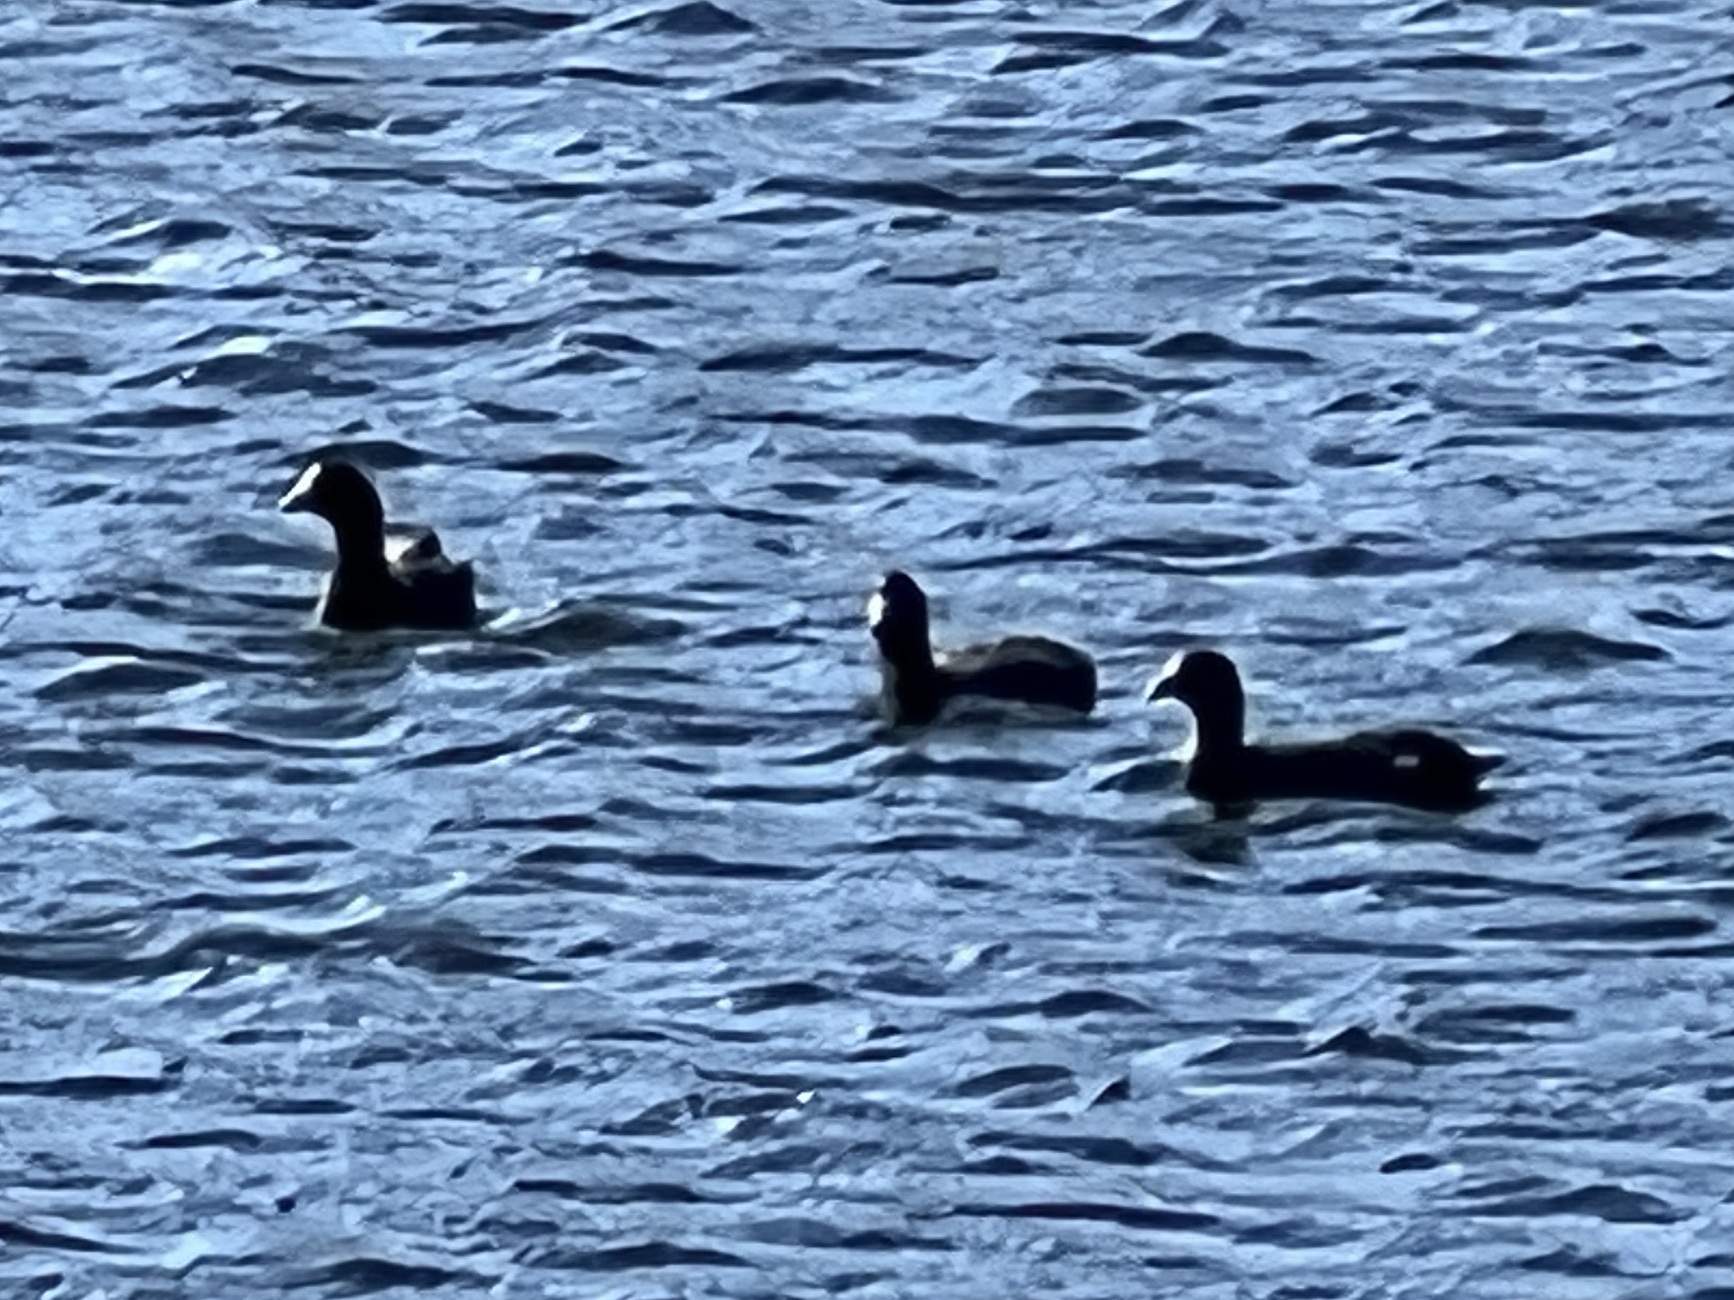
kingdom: Animalia
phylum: Chordata
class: Aves
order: Gruiformes
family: Rallidae
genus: Fulica
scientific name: Fulica americana
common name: American coot
